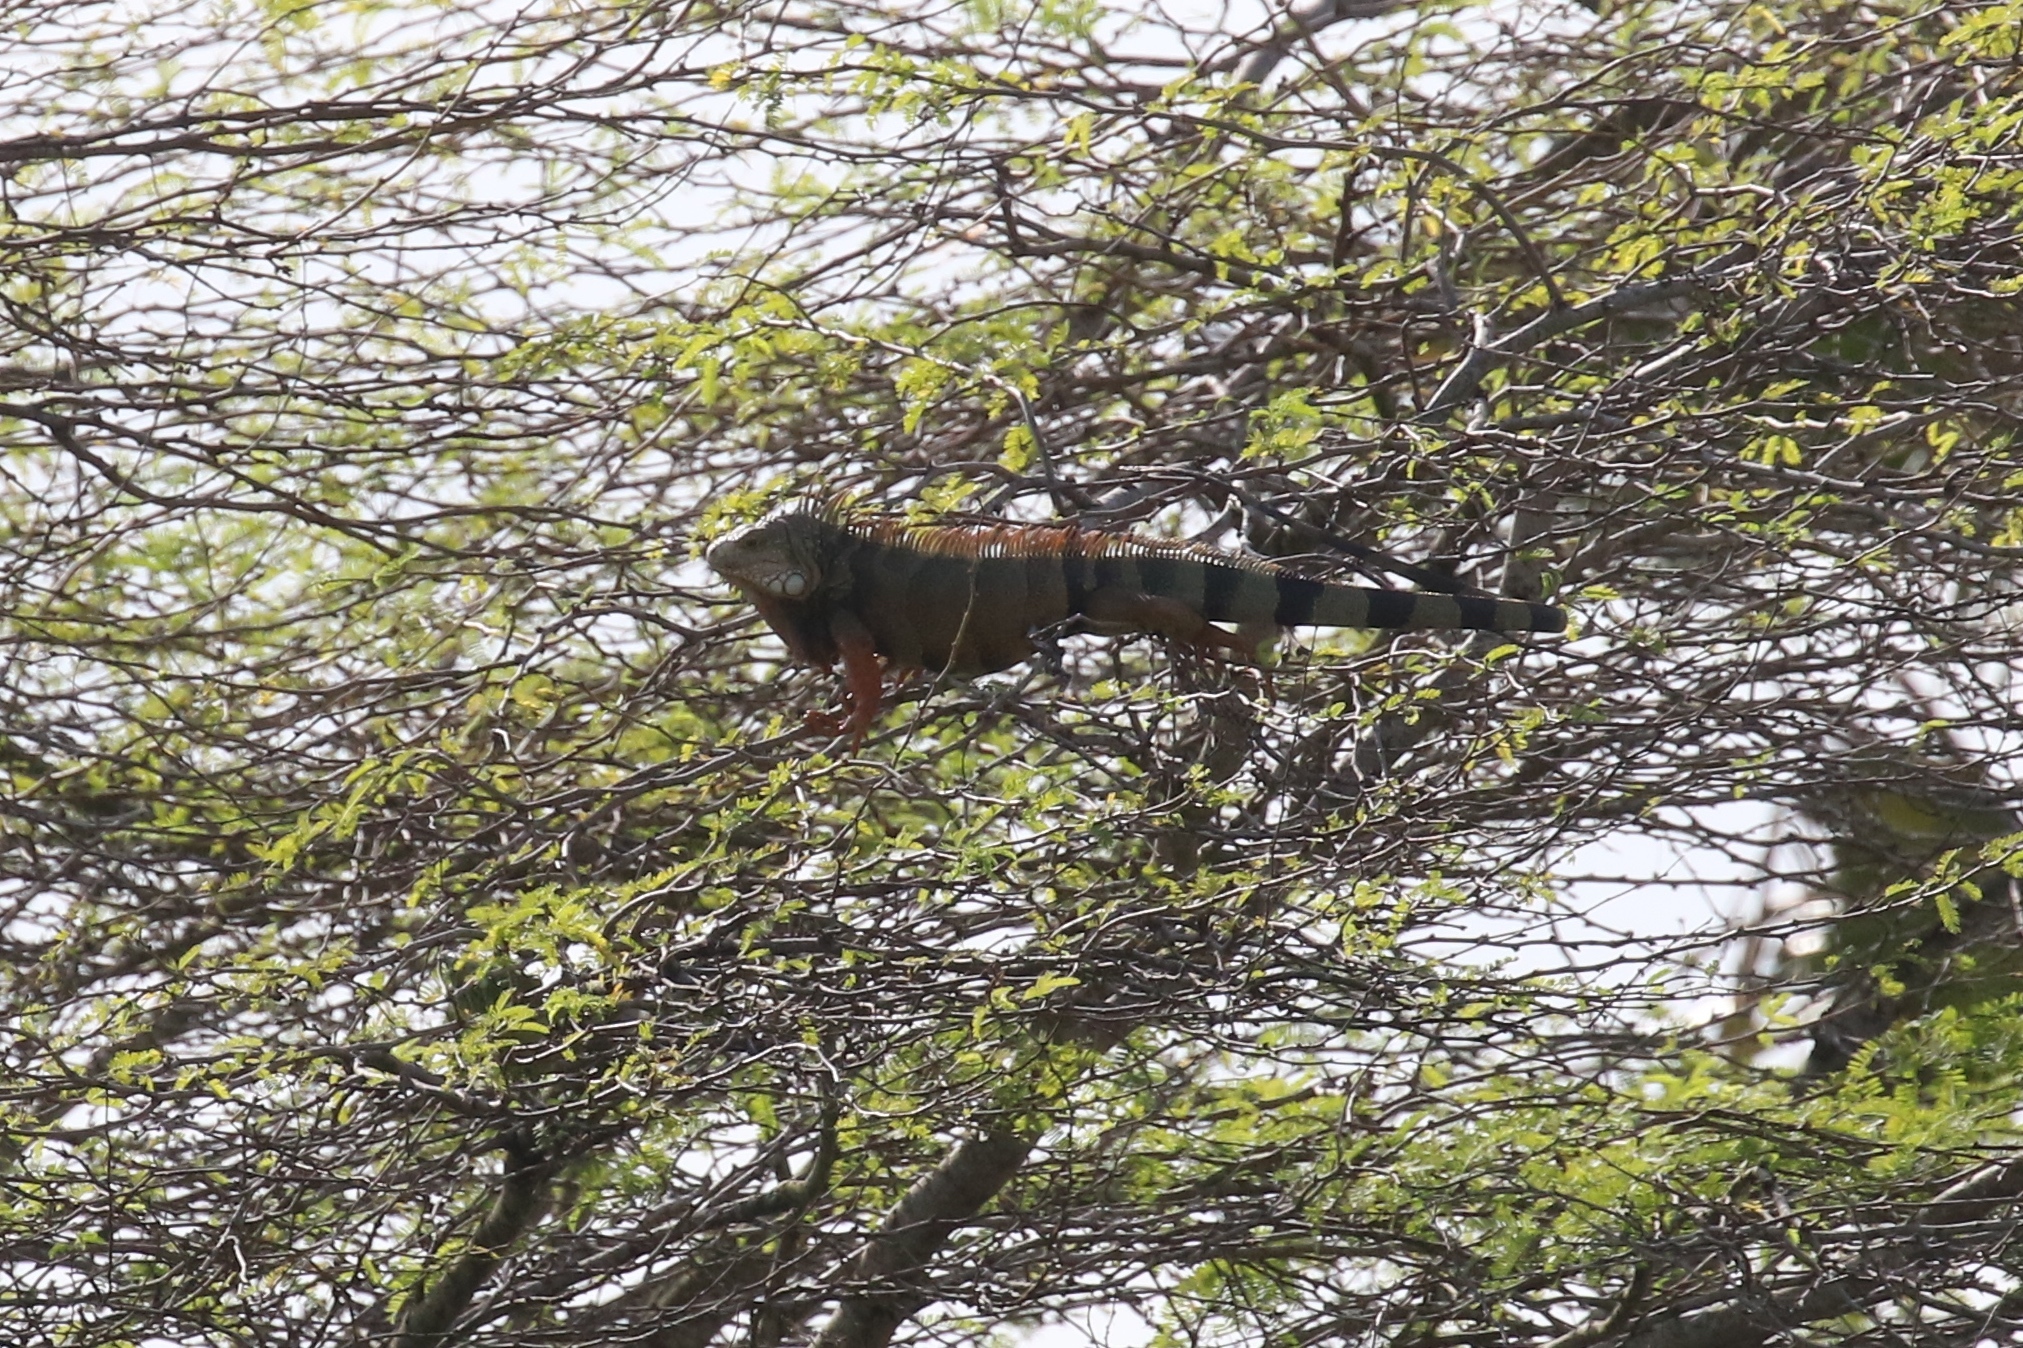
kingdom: Animalia
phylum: Chordata
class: Squamata
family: Iguanidae
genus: Iguana
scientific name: Iguana iguana
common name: Green iguana
